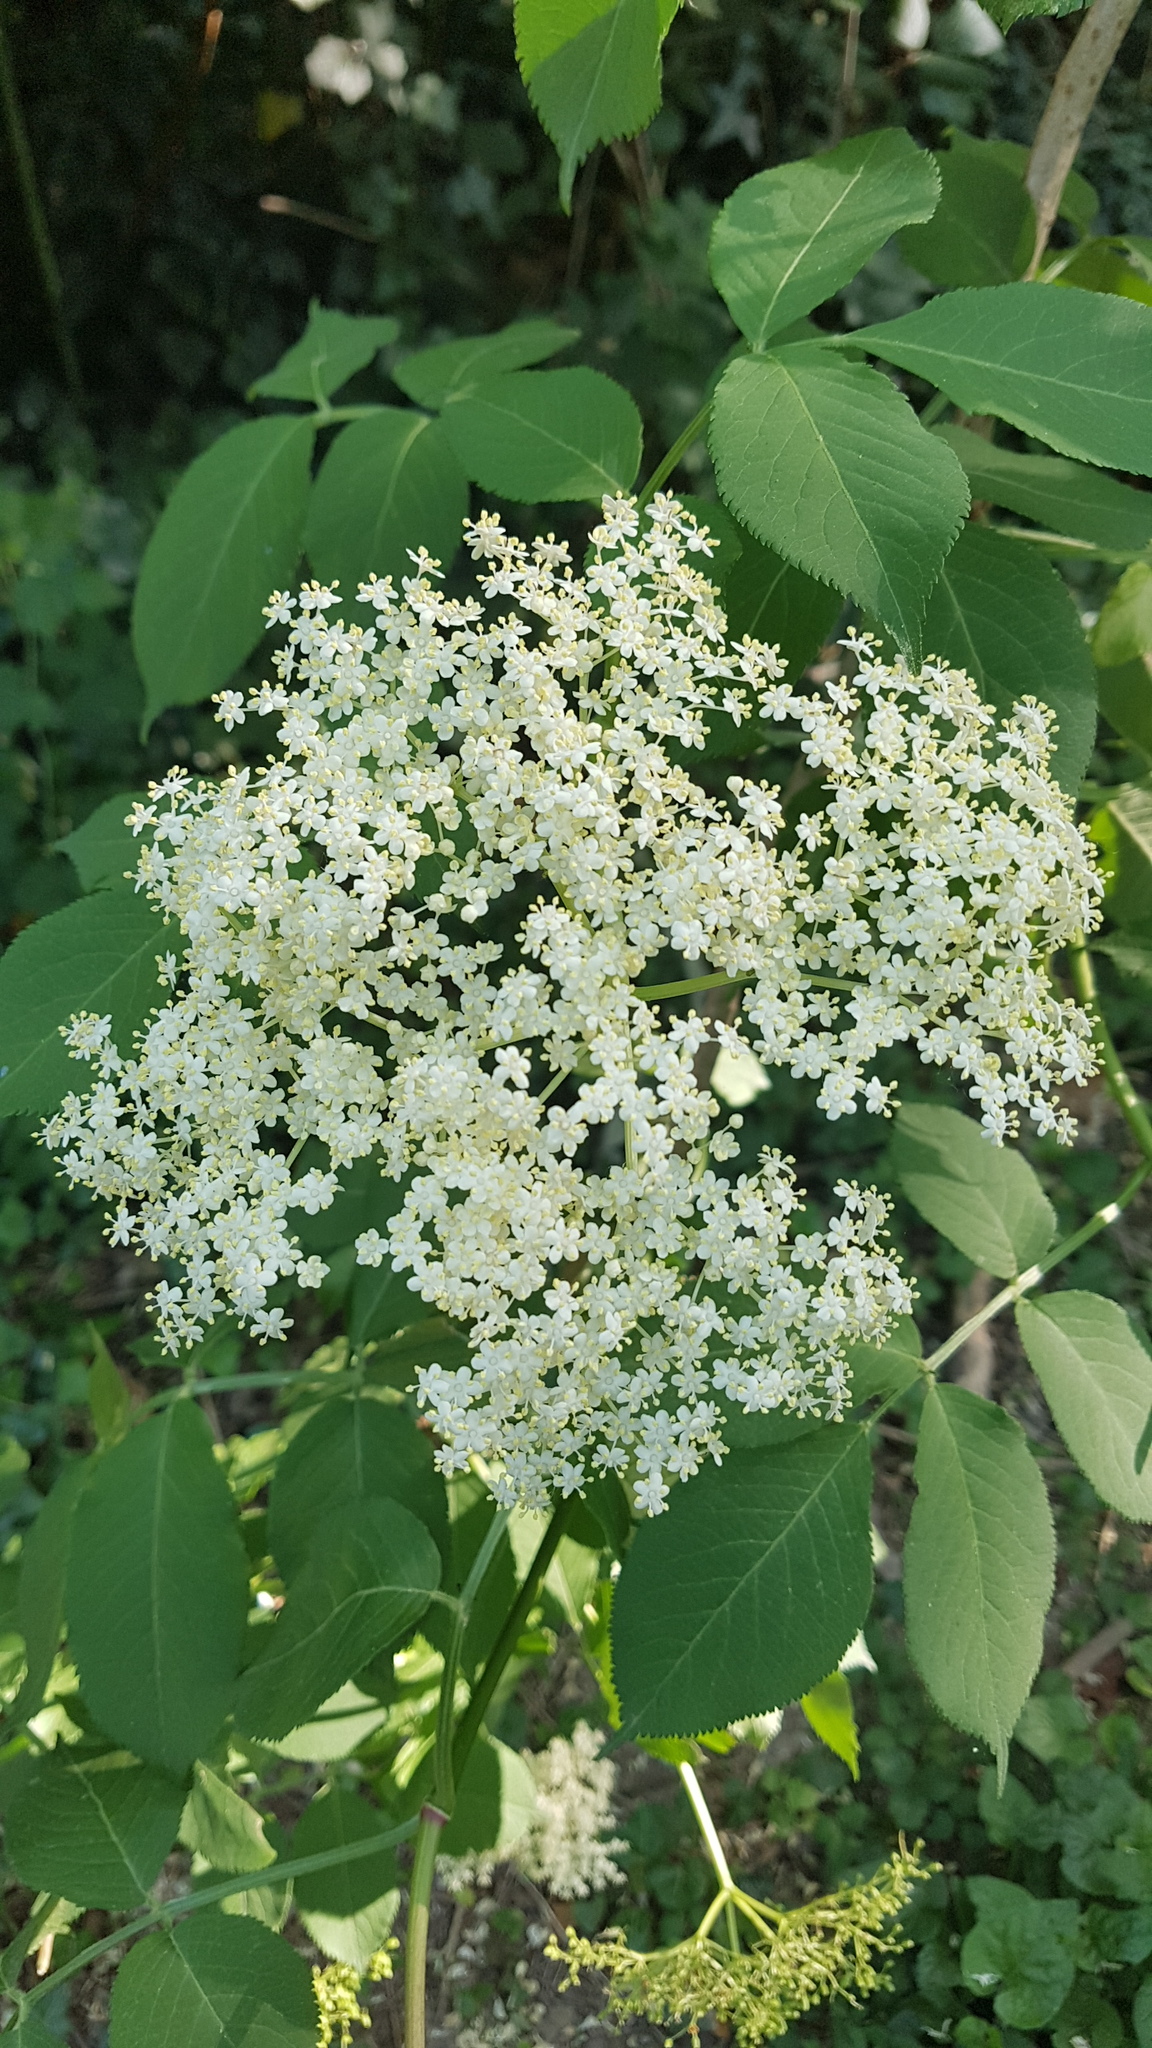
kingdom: Plantae
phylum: Tracheophyta
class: Magnoliopsida
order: Dipsacales
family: Viburnaceae
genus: Sambucus
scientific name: Sambucus nigra
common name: Elder
